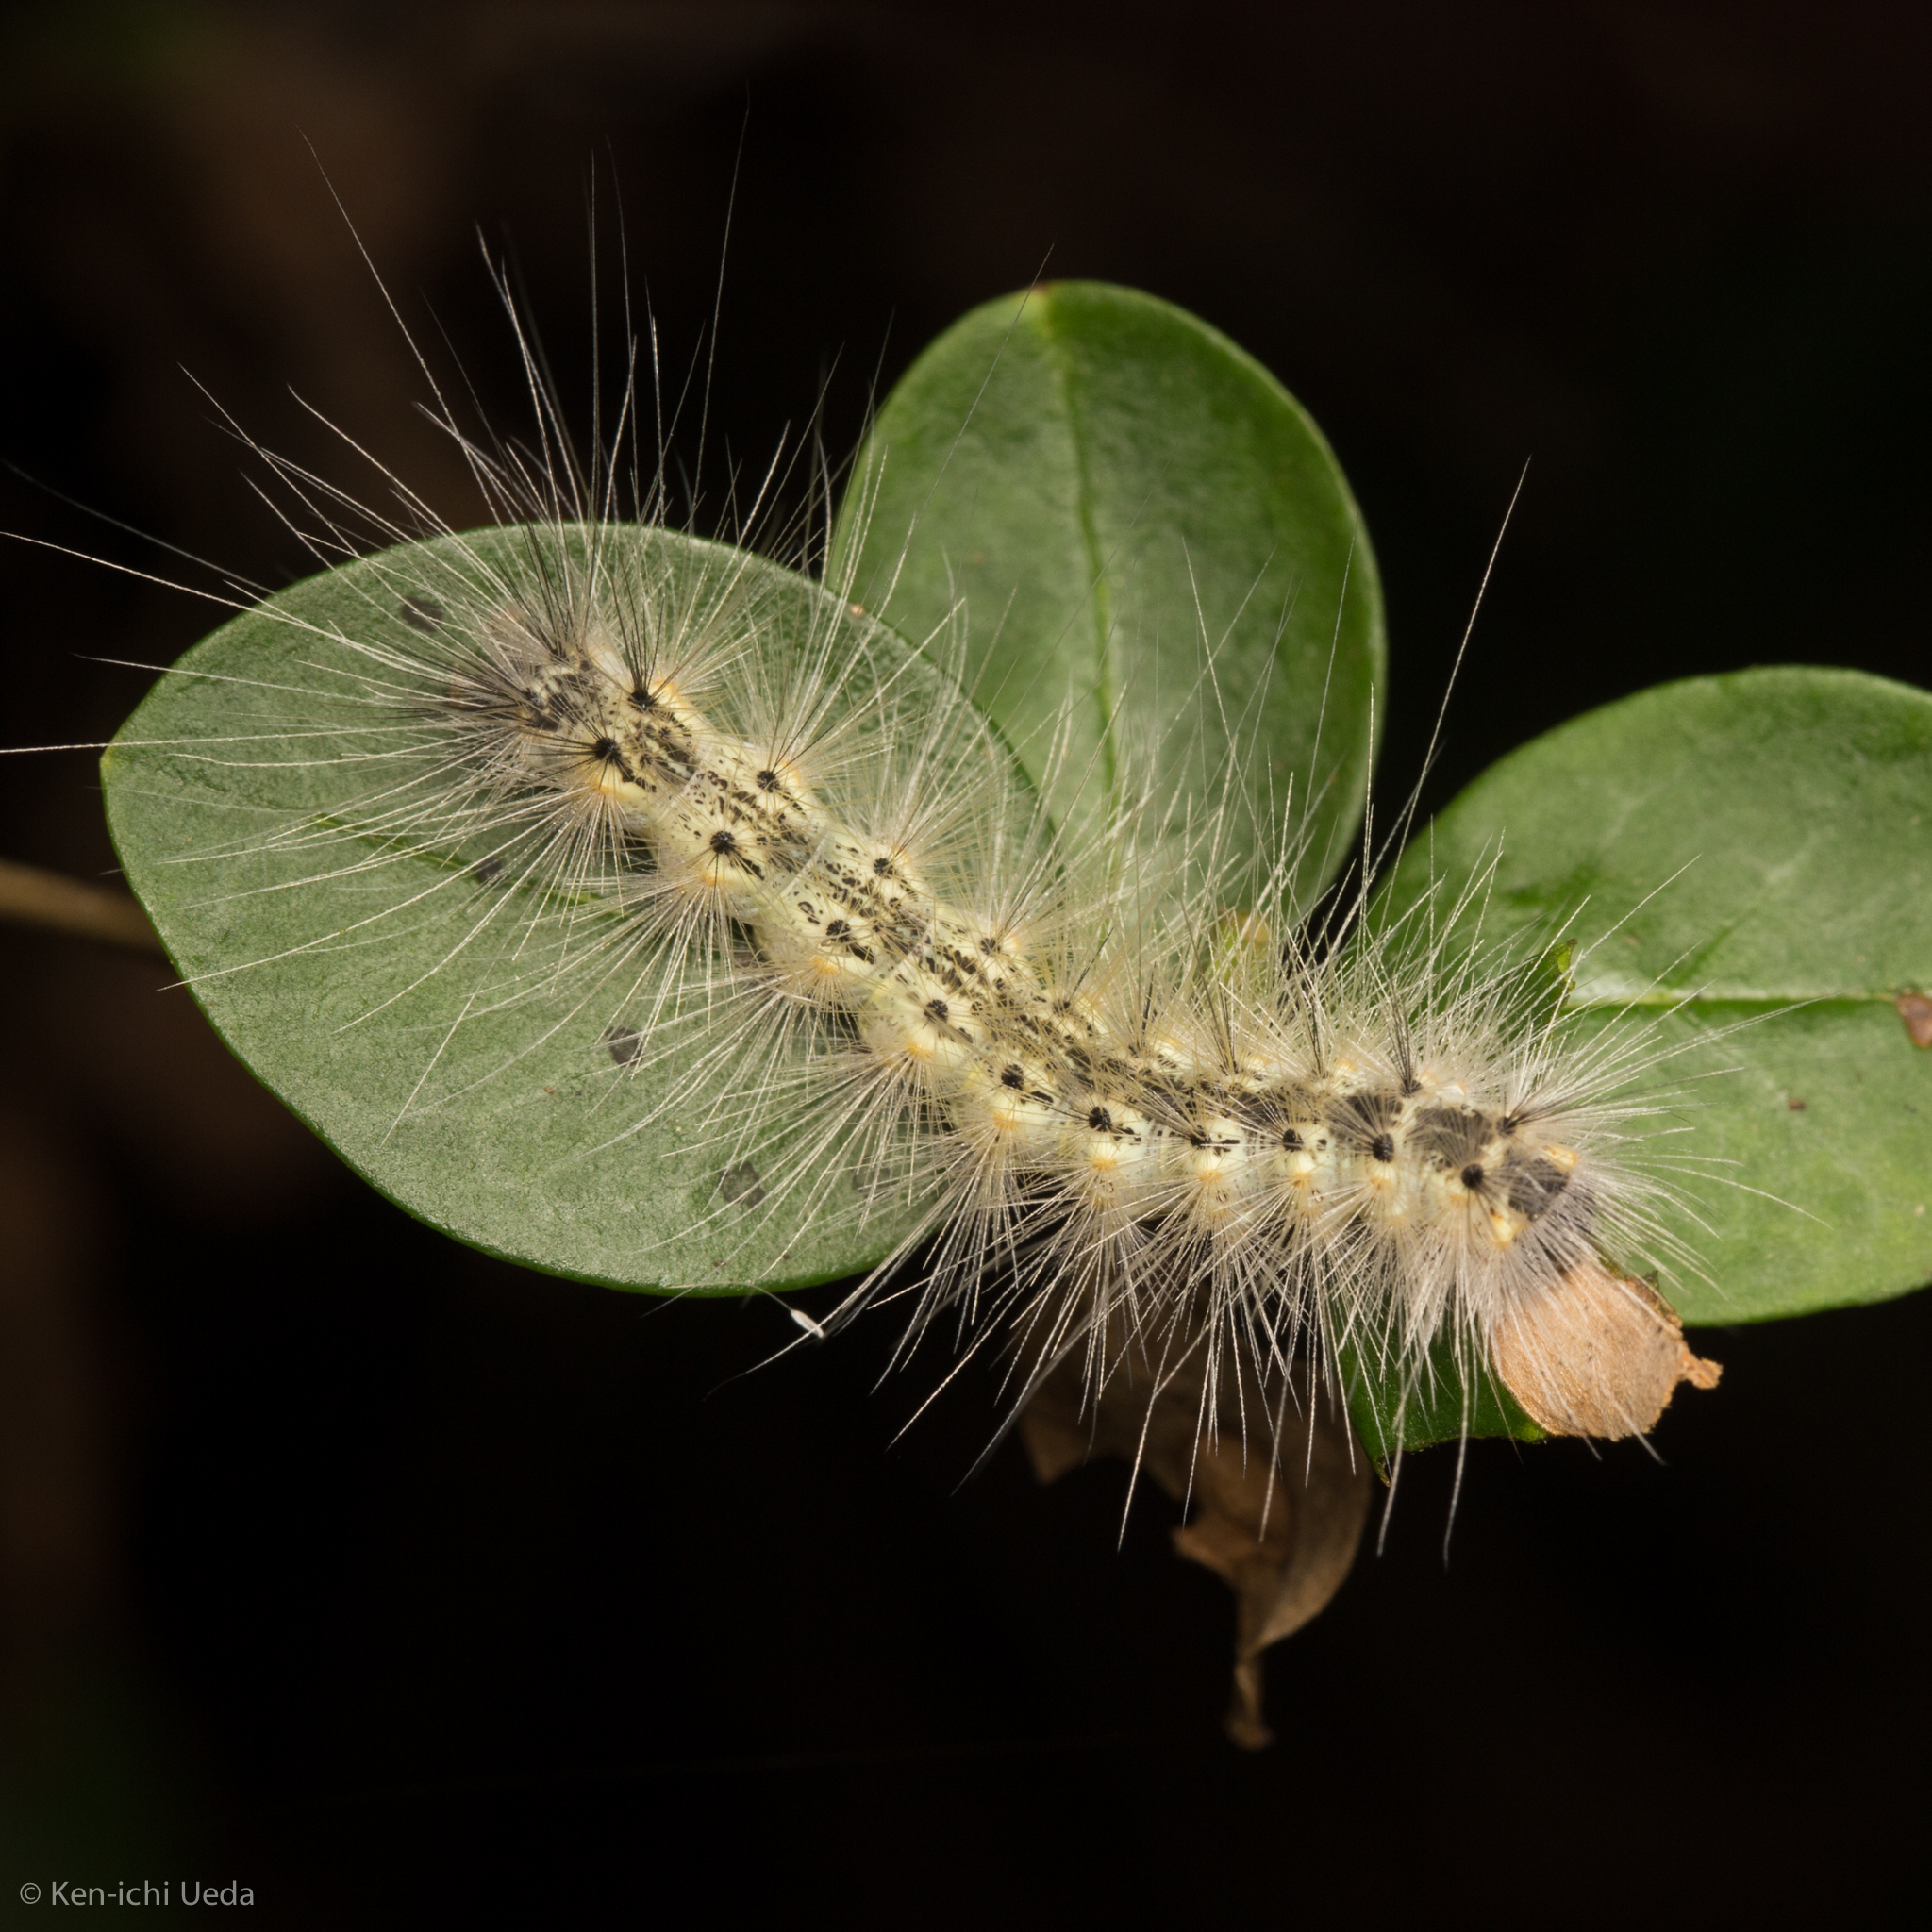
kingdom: Animalia
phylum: Arthropoda
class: Insecta
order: Lepidoptera
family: Erebidae
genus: Hyphantria
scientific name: Hyphantria cunea
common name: American white moth
